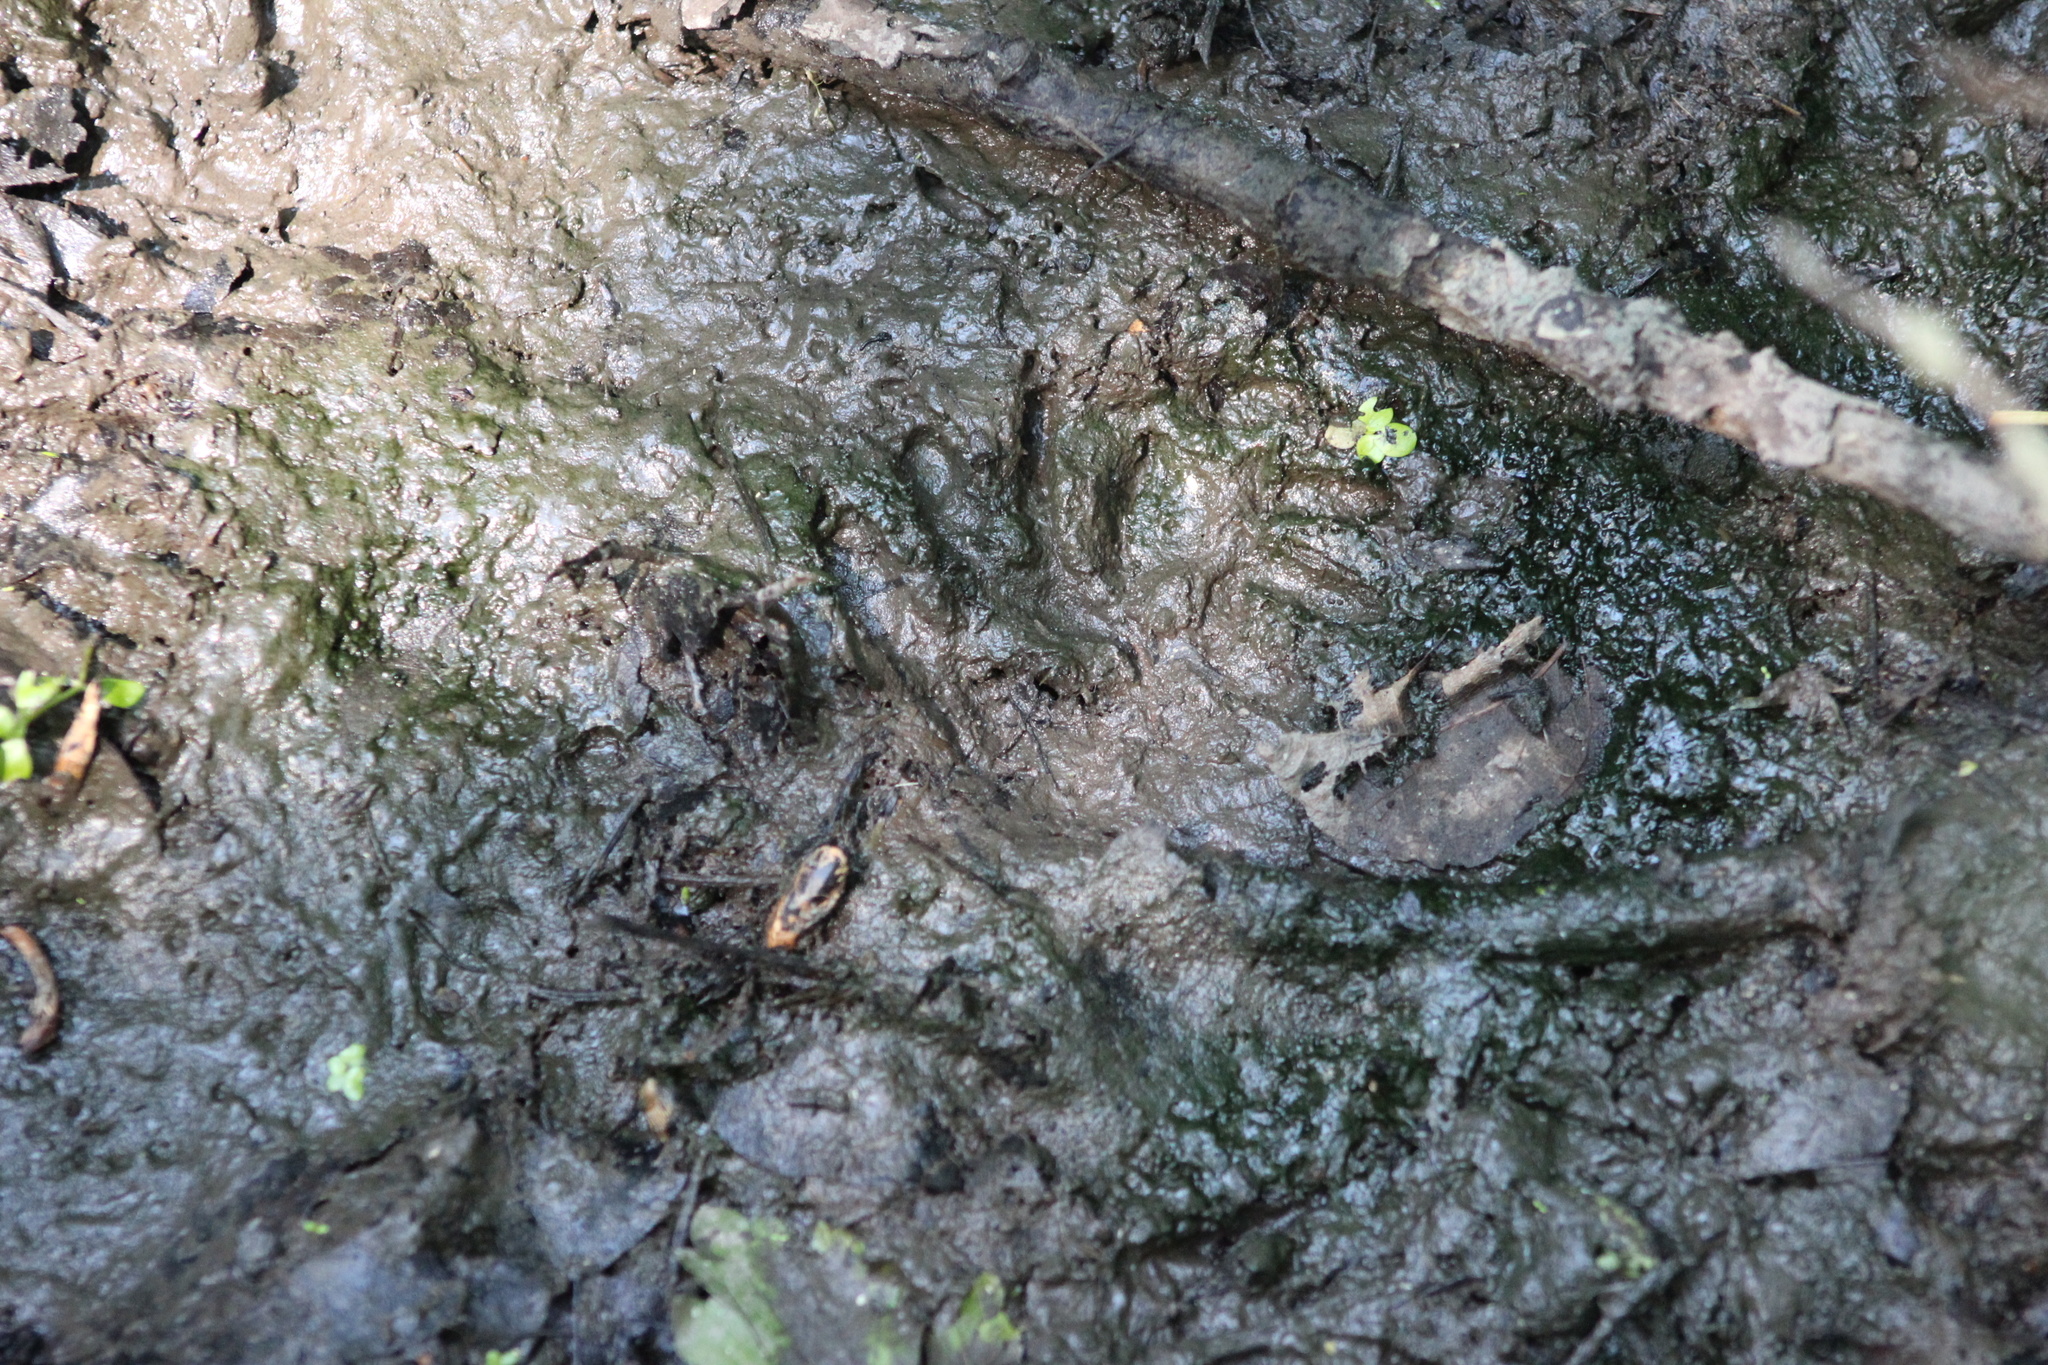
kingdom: Animalia
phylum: Chordata
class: Mammalia
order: Carnivora
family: Procyonidae
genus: Procyon
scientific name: Procyon lotor
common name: Raccoon
